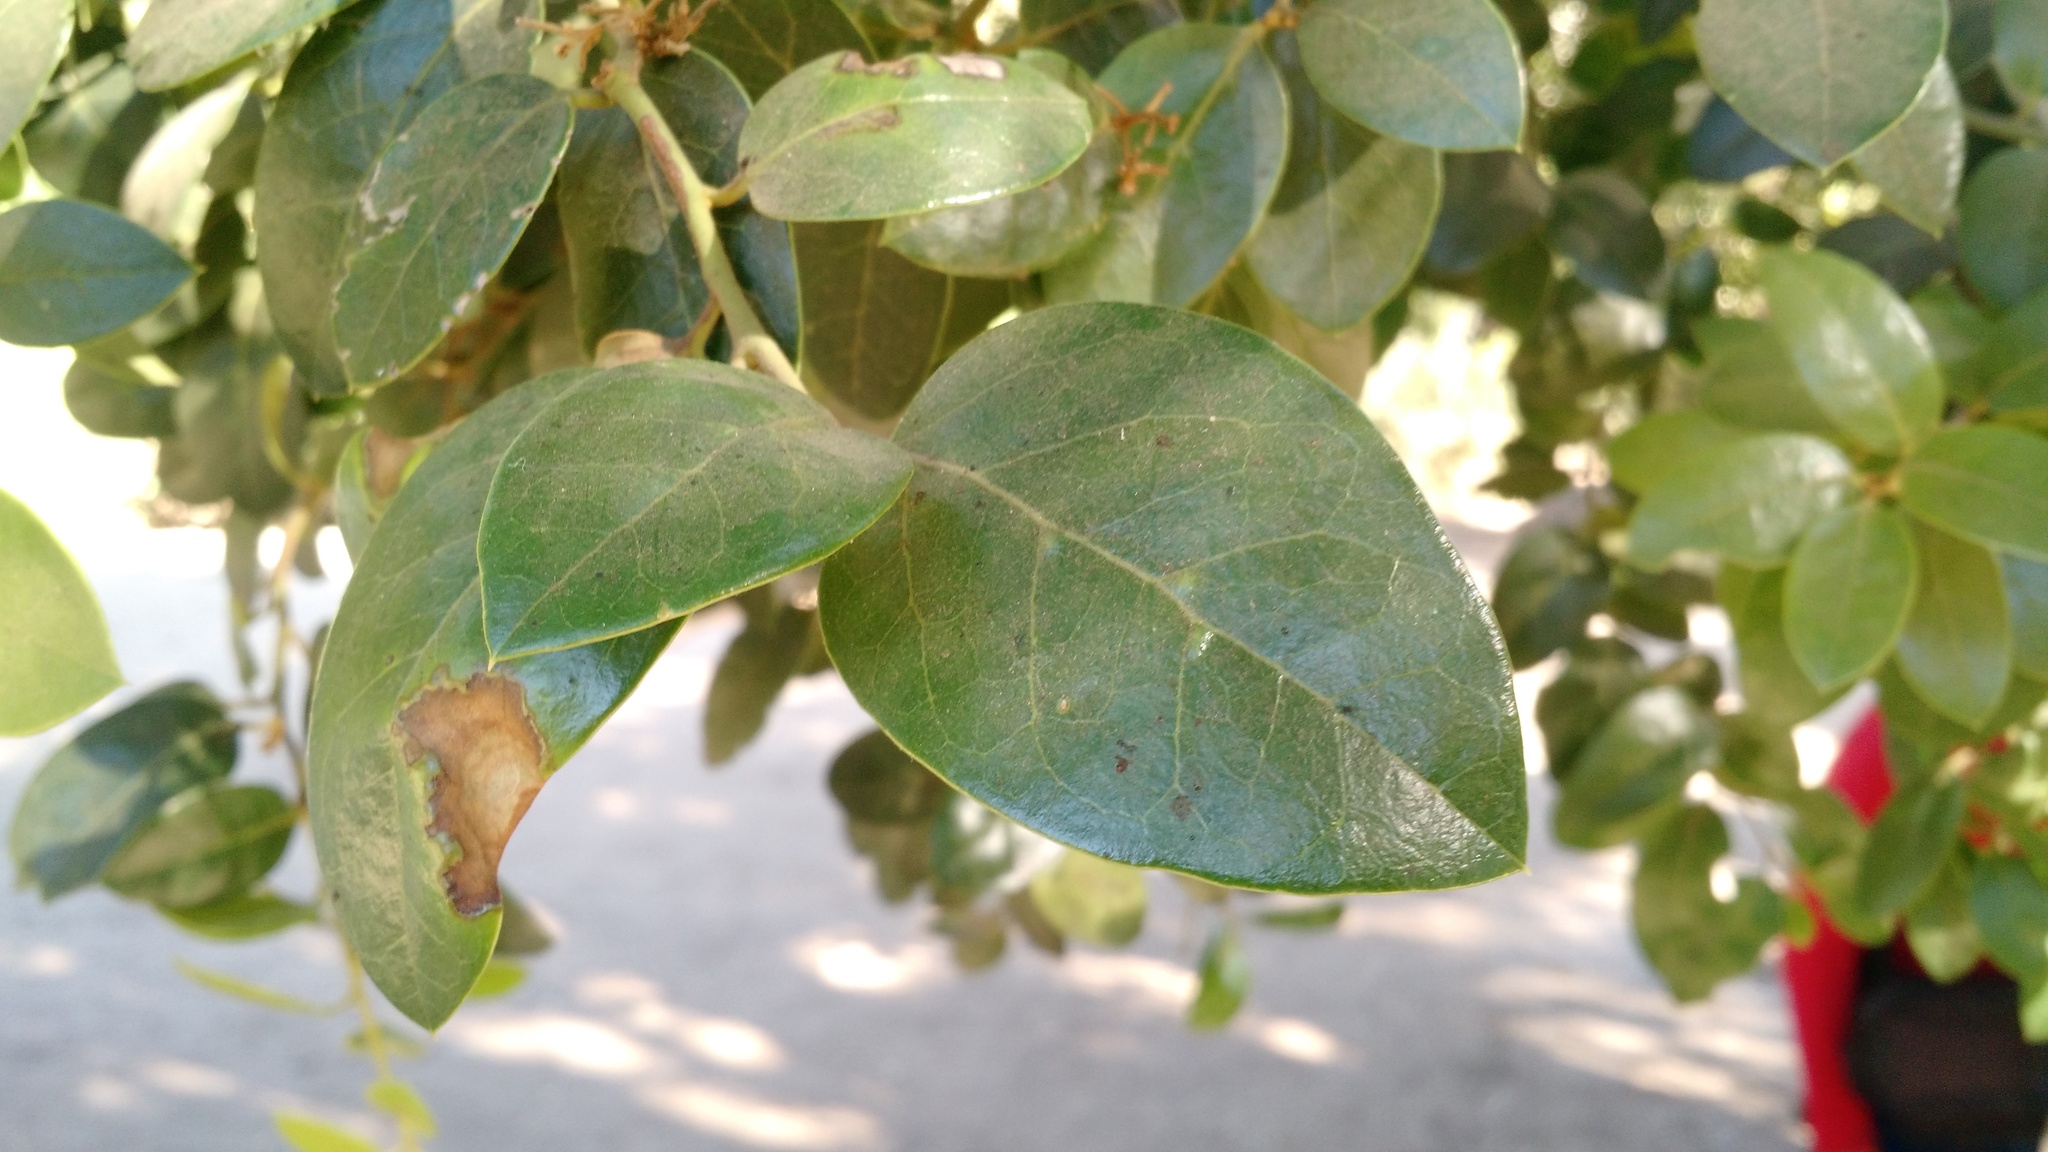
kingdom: Plantae
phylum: Tracheophyta
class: Magnoliopsida
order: Cardiopteridales
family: Cardiopteridaceae
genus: Citronella
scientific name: Citronella mucronata
